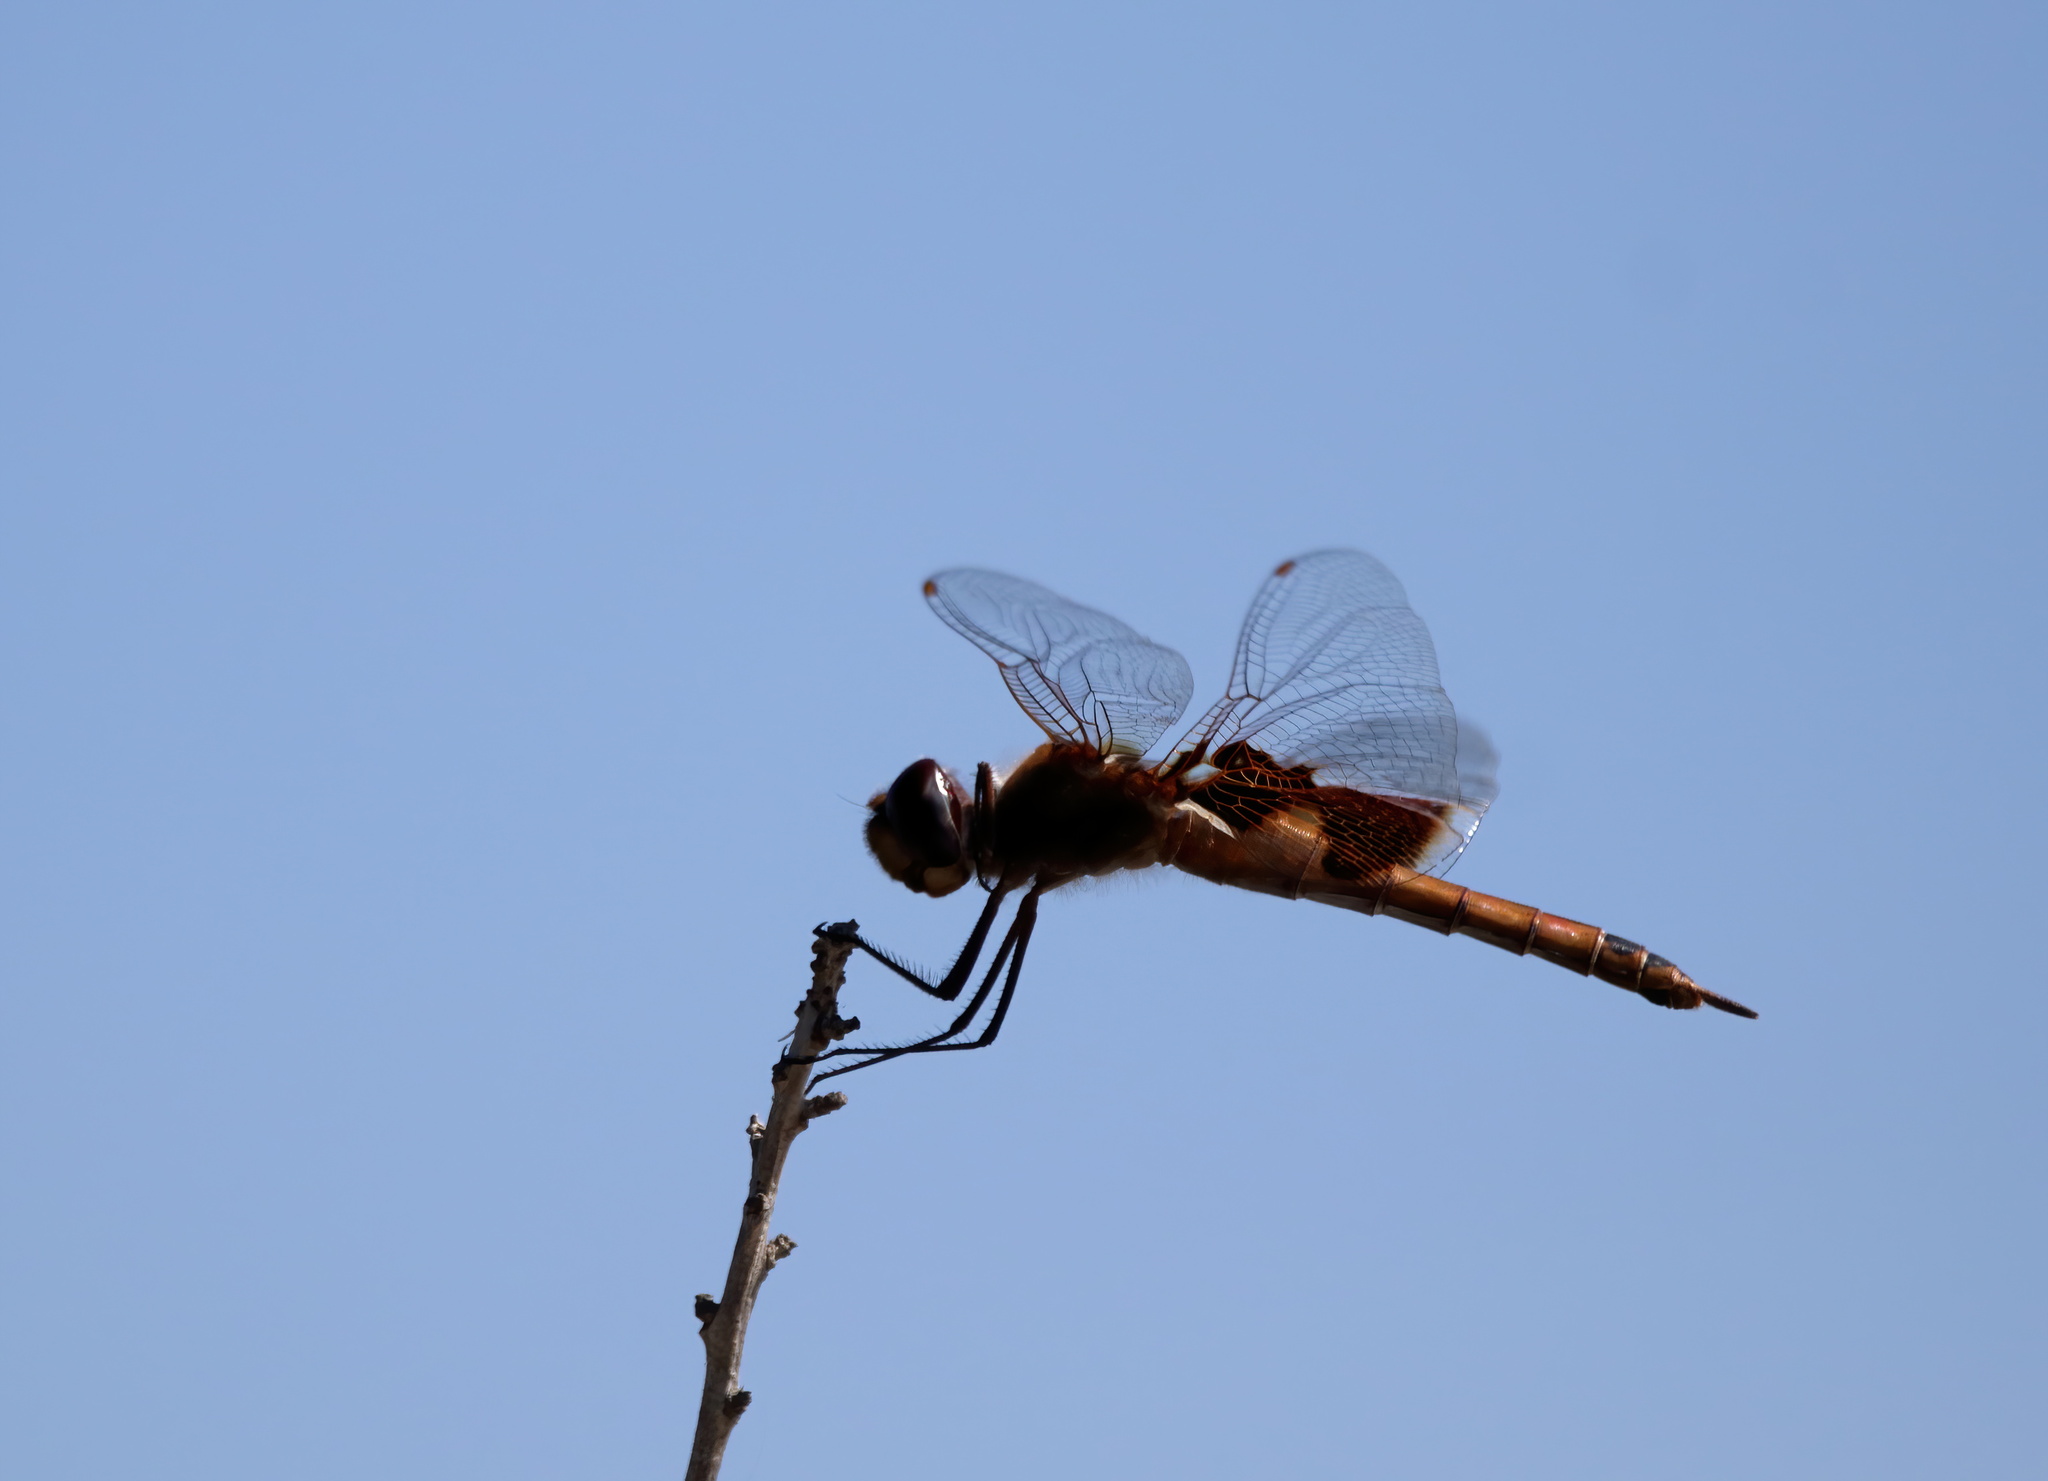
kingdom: Animalia
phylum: Arthropoda
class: Insecta
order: Odonata
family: Libellulidae
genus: Tramea
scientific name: Tramea onusta
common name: Red saddlebags
